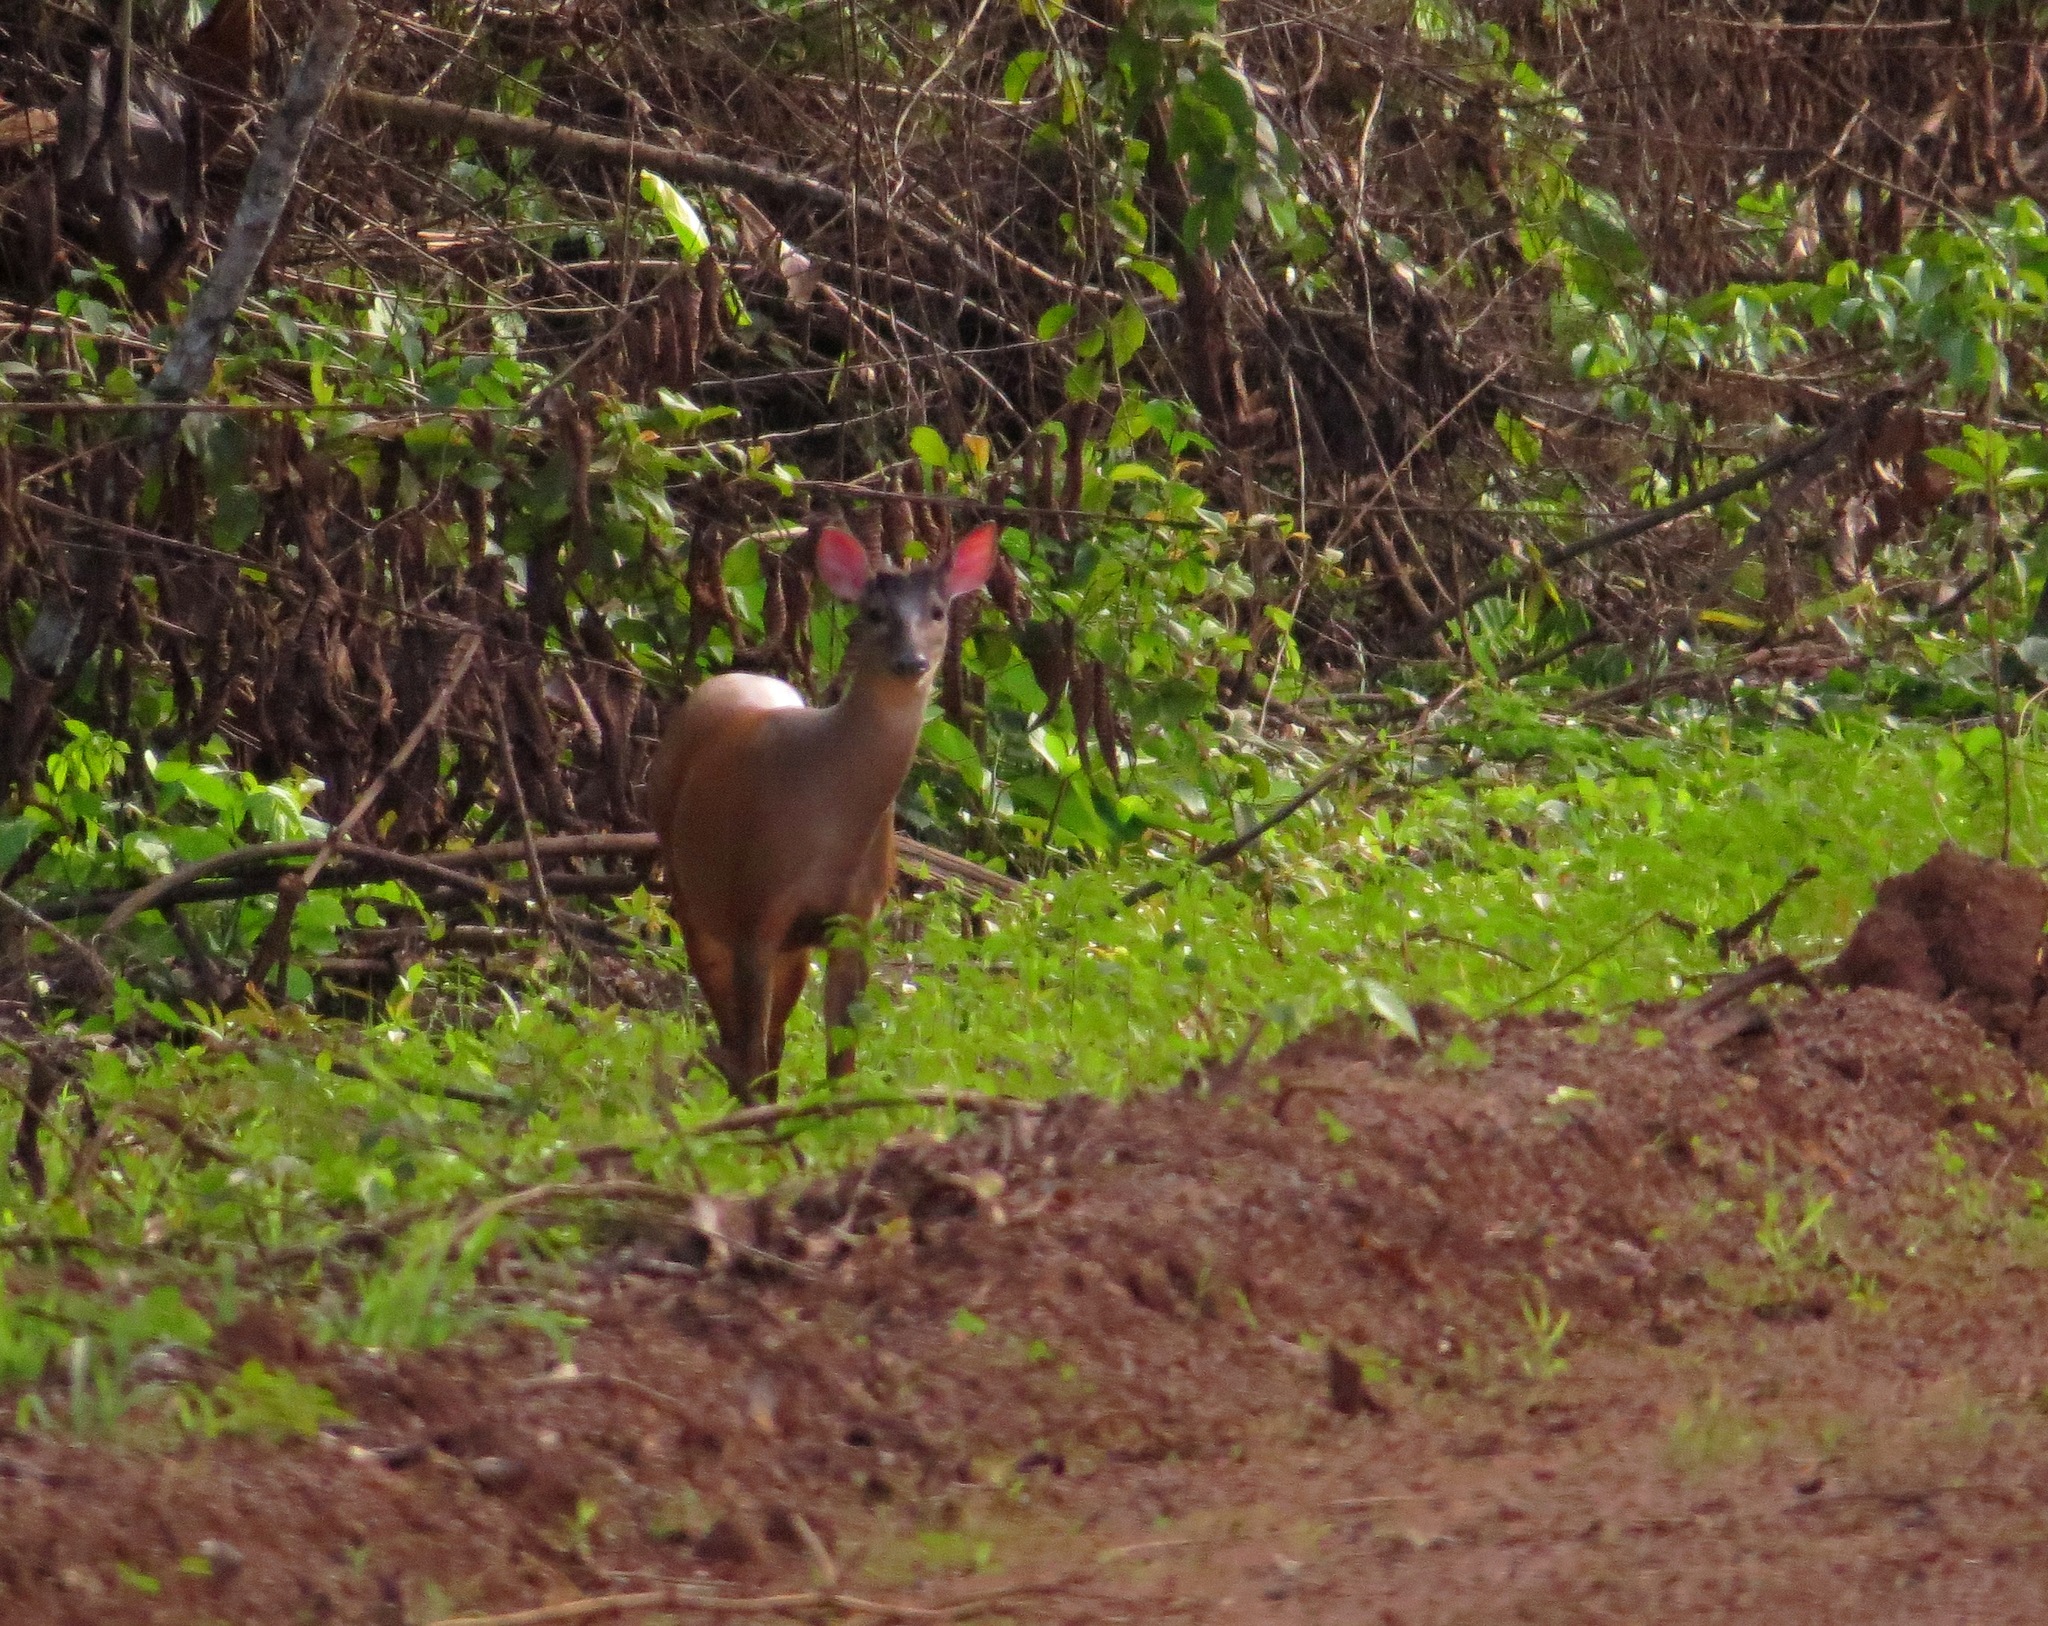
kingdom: Animalia
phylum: Chordata
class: Mammalia
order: Artiodactyla
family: Cervidae
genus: Mazama
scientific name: Mazama americana
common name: Red brocket
